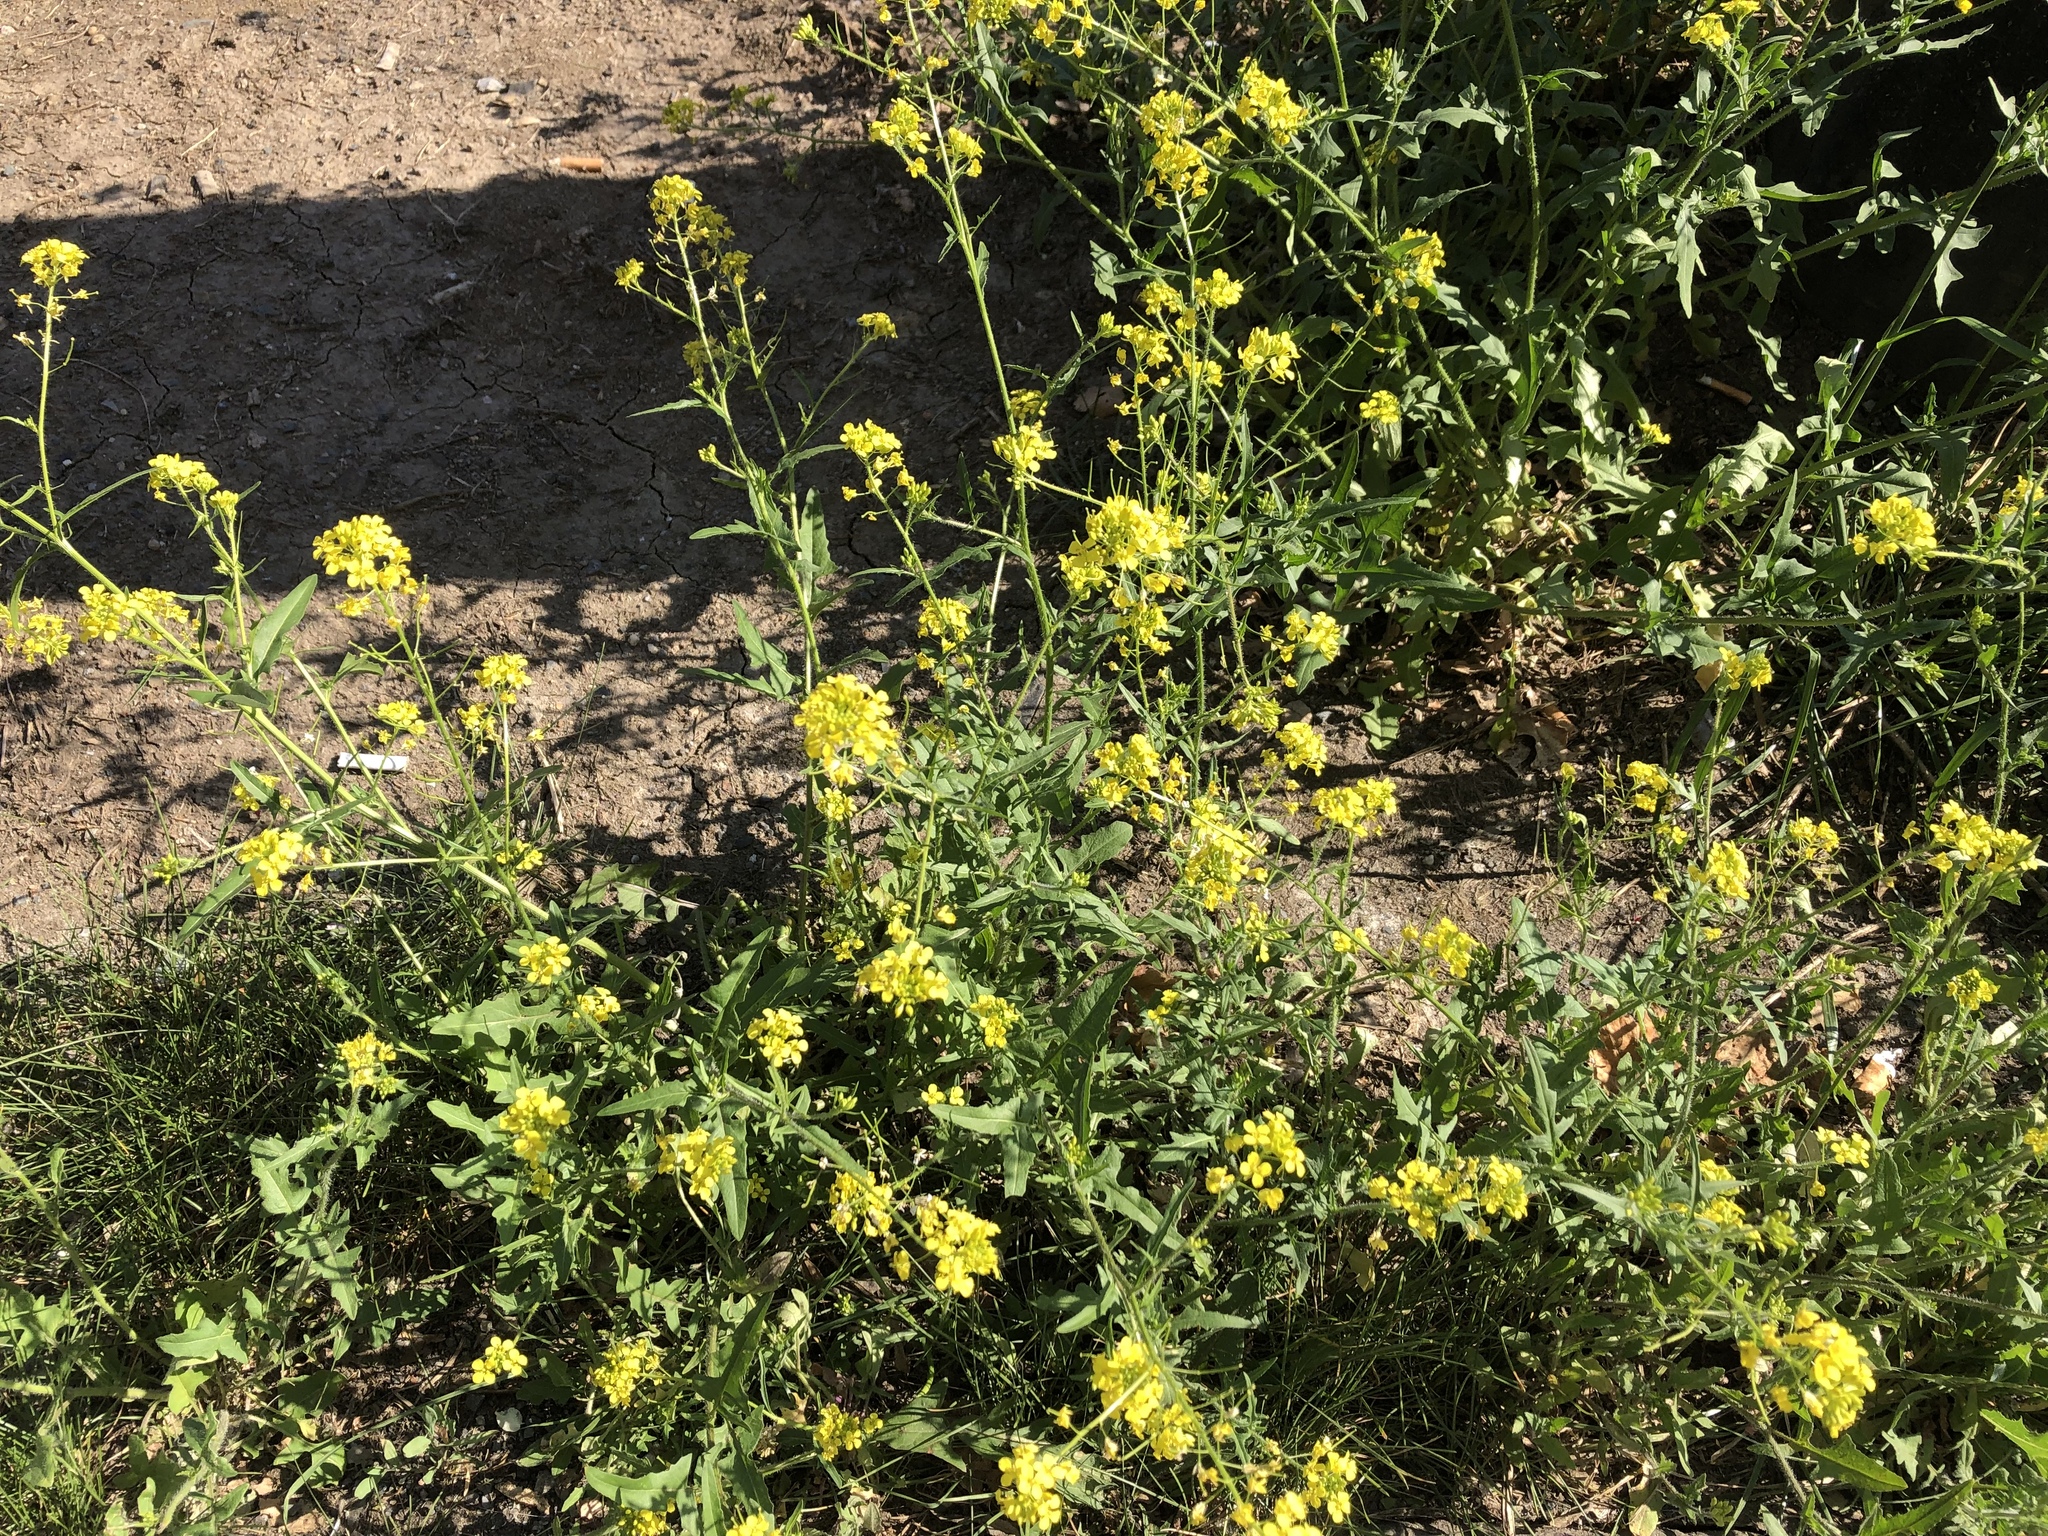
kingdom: Plantae
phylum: Tracheophyta
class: Magnoliopsida
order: Brassicales
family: Brassicaceae
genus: Sisymbrium
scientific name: Sisymbrium loeselii
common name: False london-rocket
